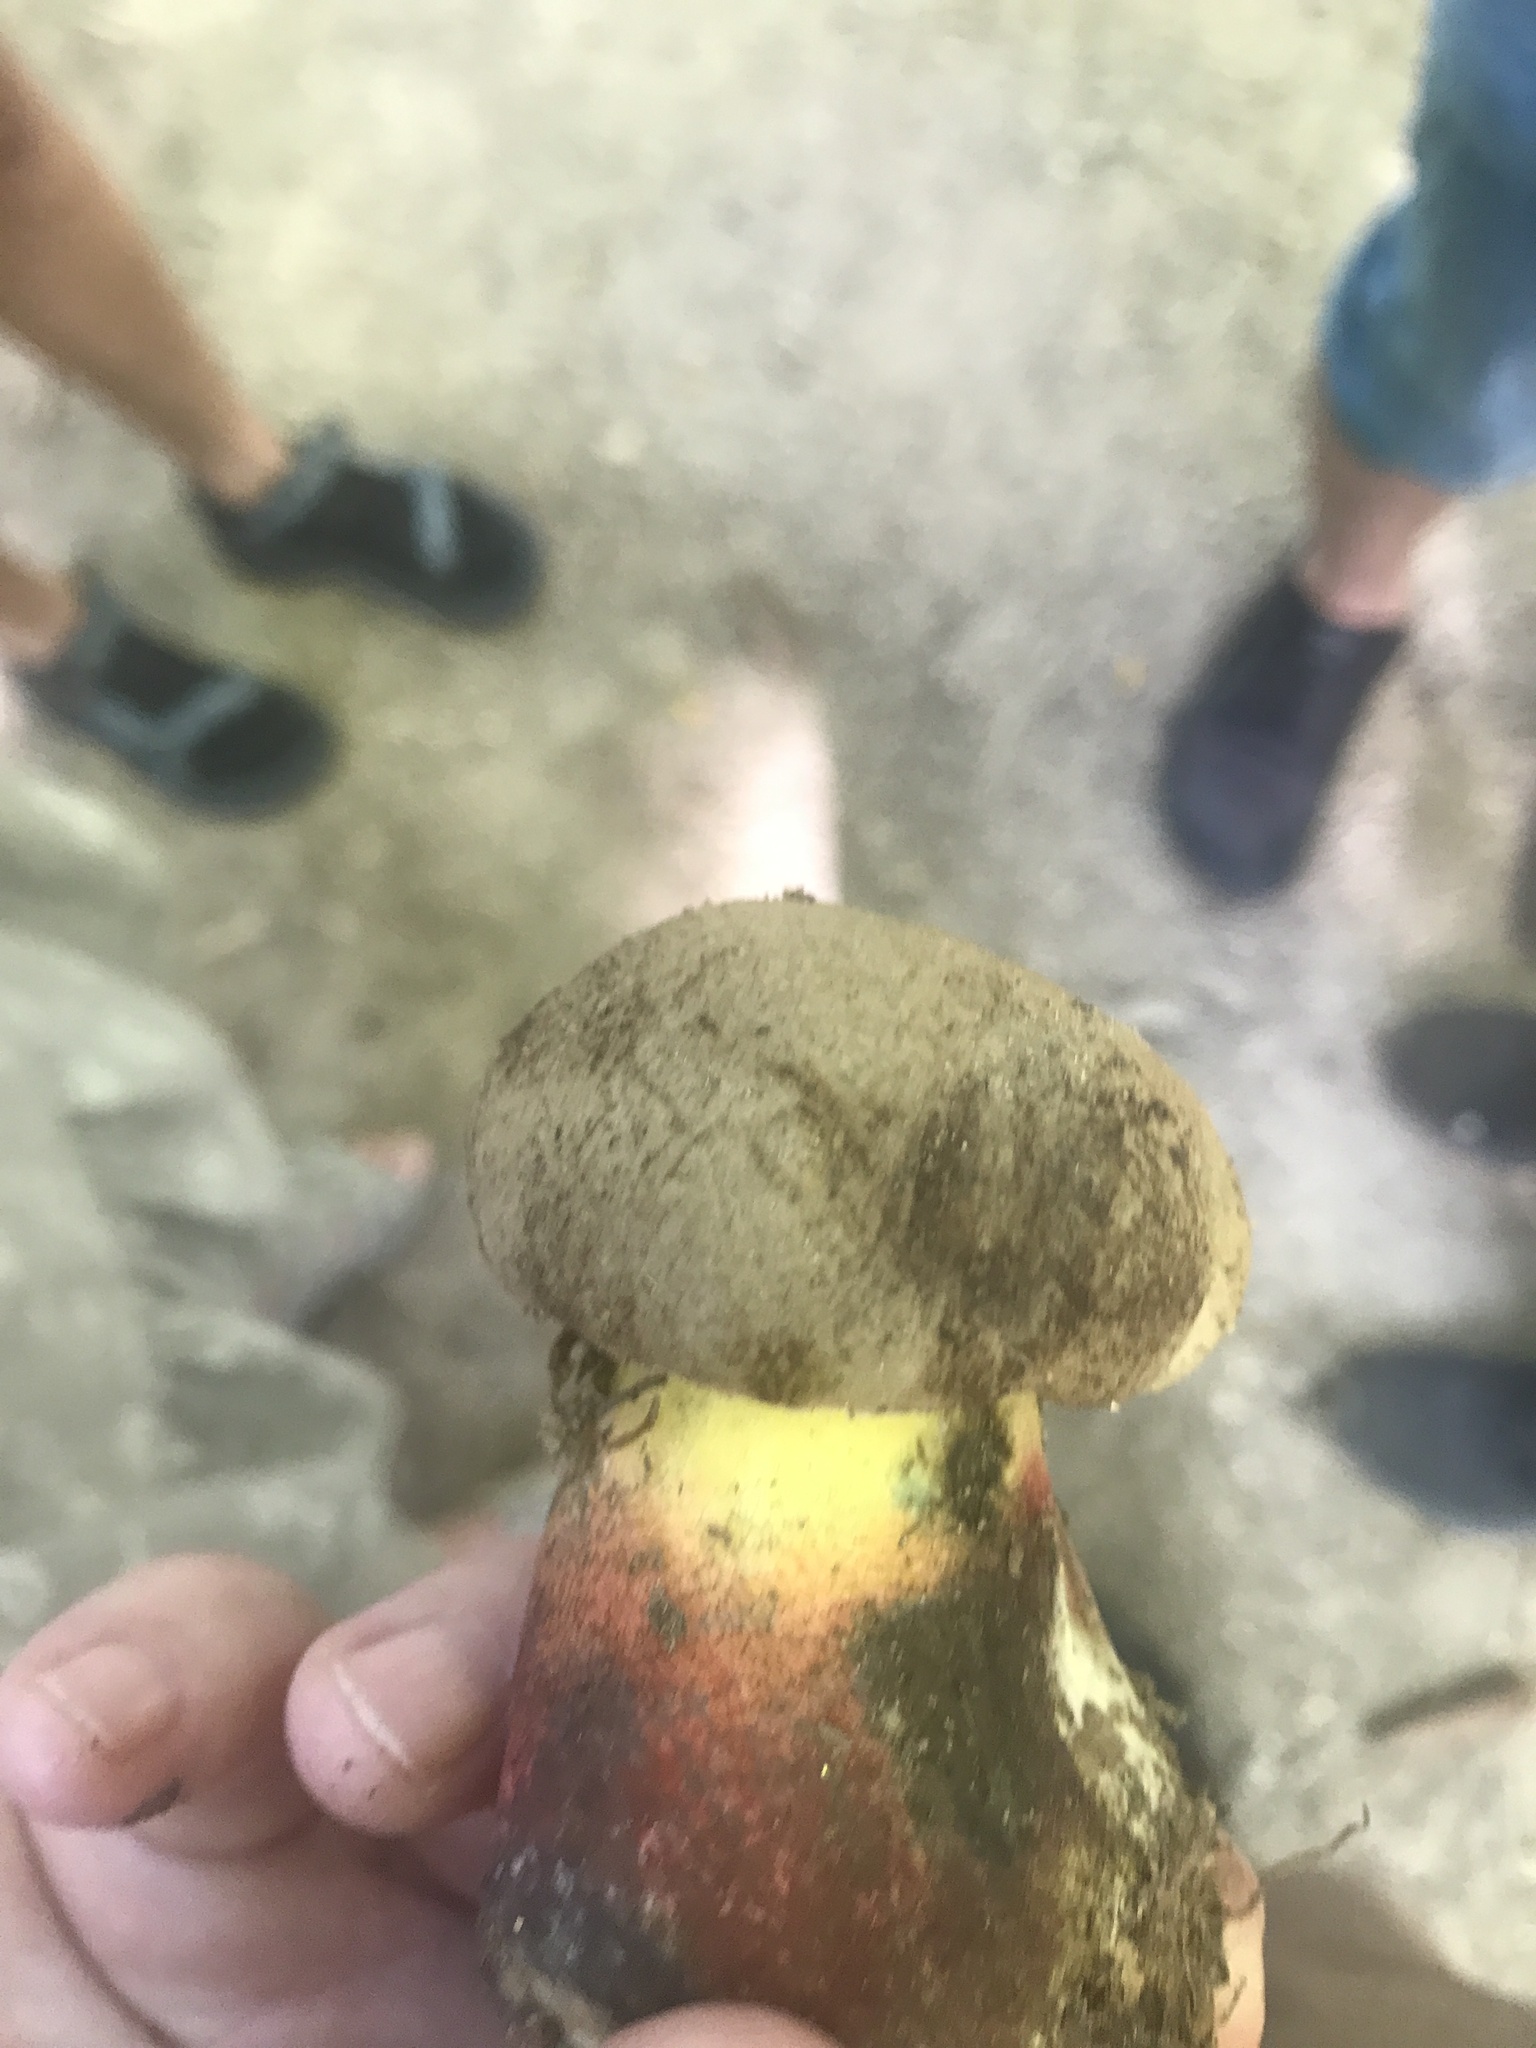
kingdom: Fungi
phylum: Basidiomycota
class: Agaricomycetes
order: Boletales
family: Boletaceae
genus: Caloboletus
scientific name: Caloboletus calopus
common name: Bitter beech bolete
